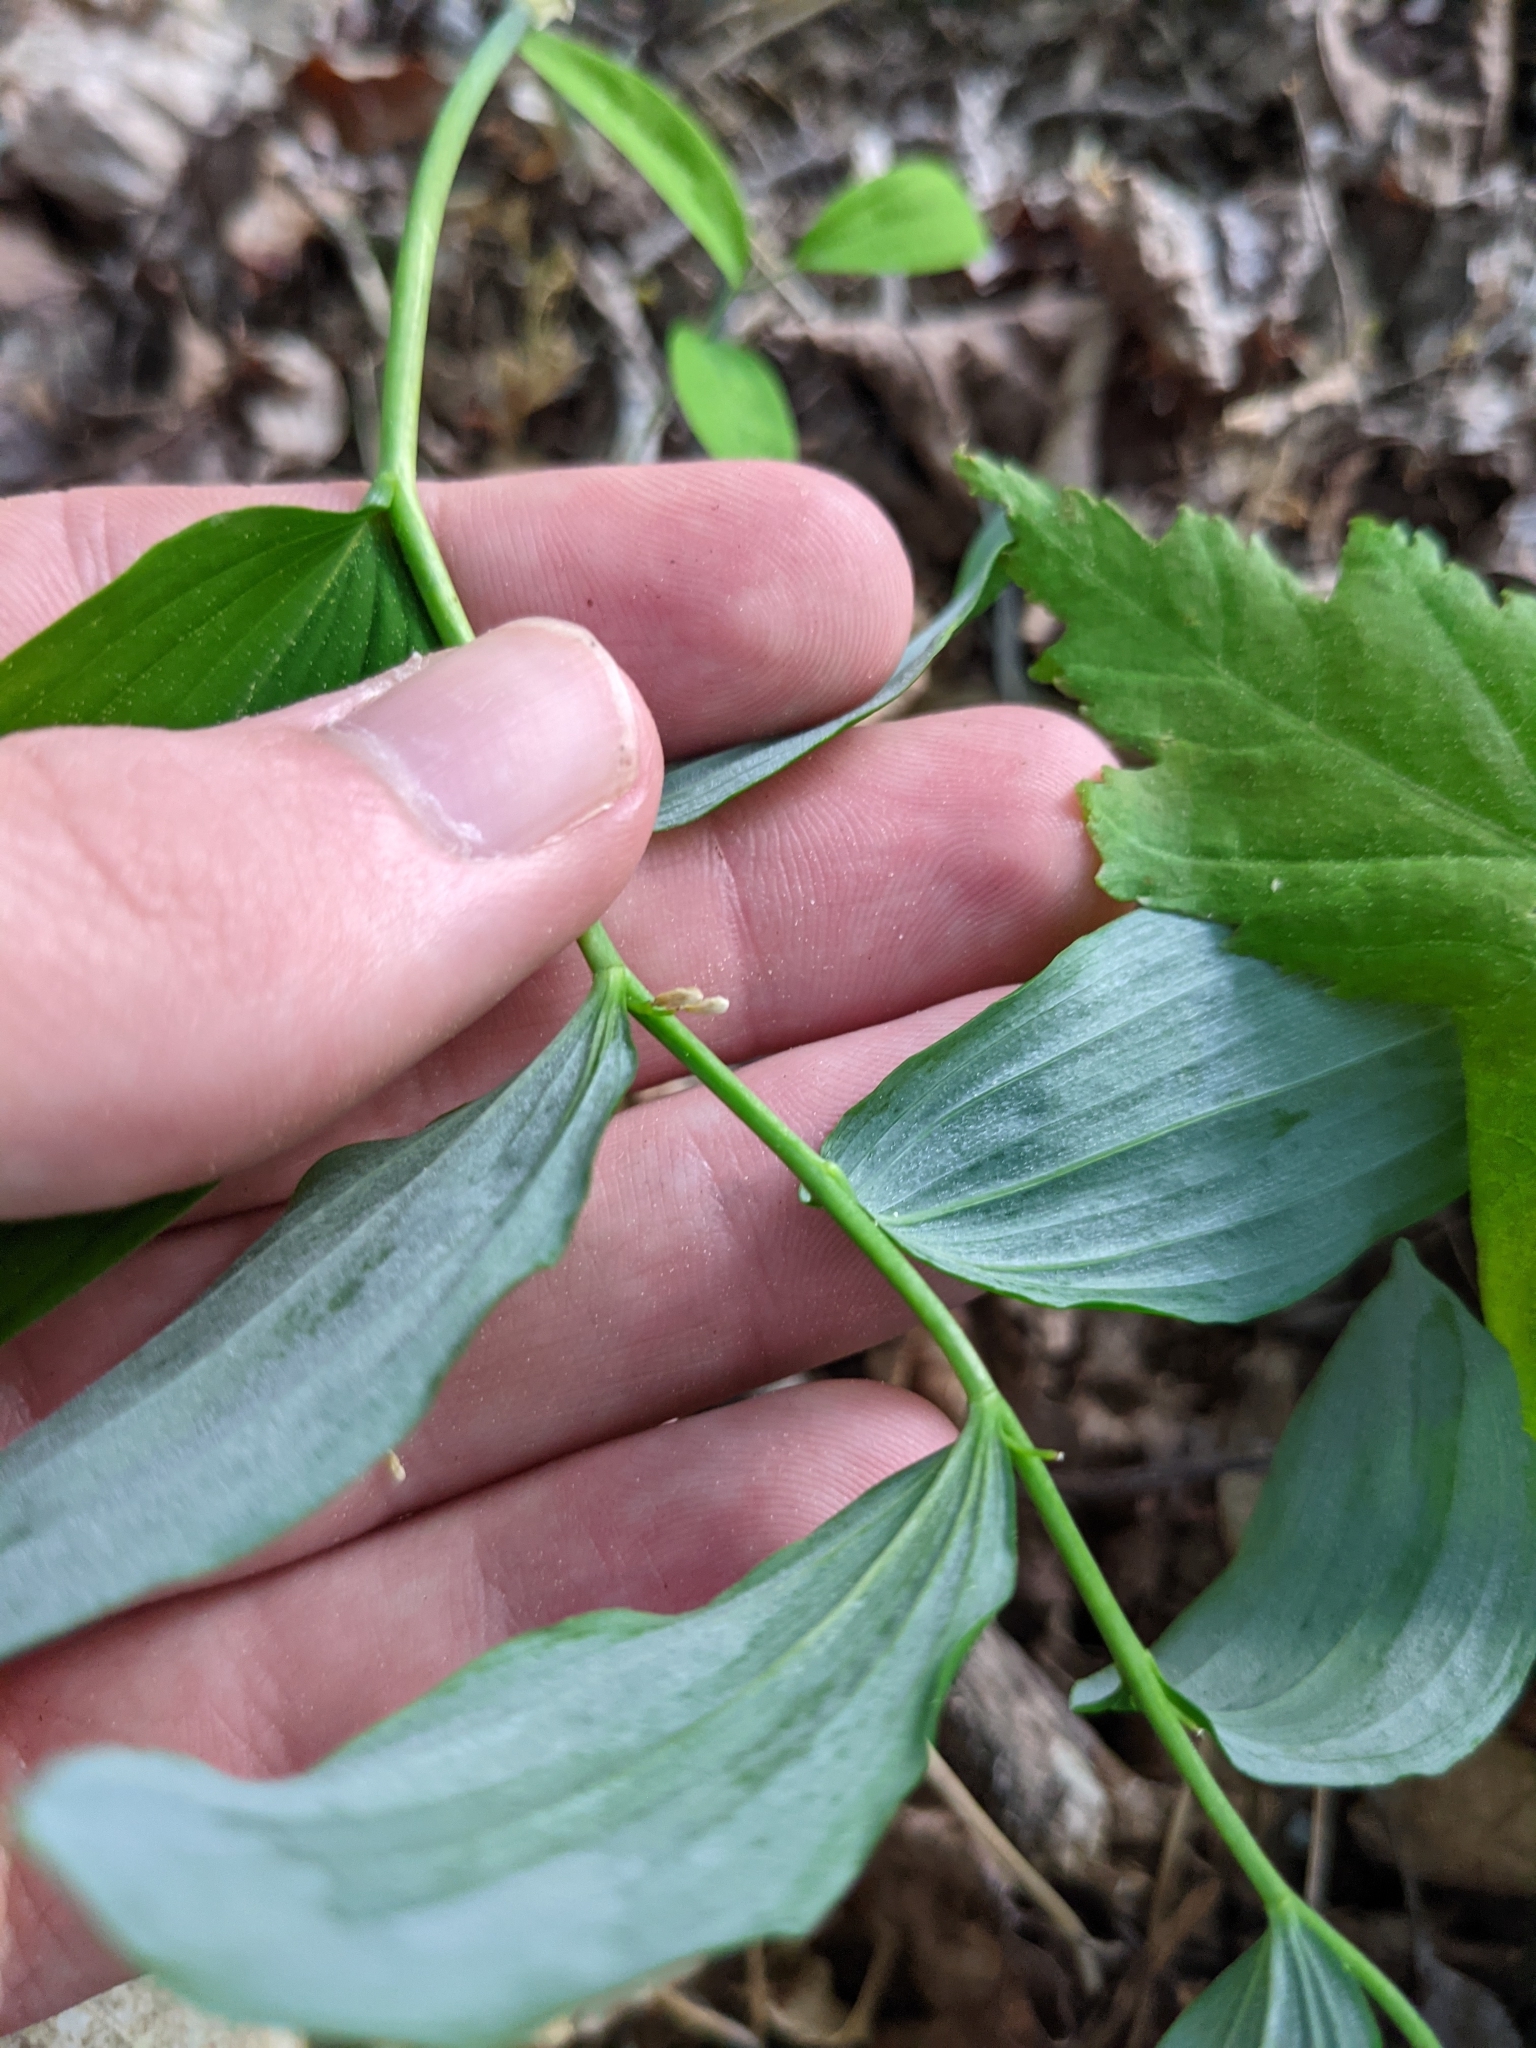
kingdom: Plantae
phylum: Tracheophyta
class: Liliopsida
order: Asparagales
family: Asparagaceae
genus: Polygonatum
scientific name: Polygonatum pubescens
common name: Downy solomon's seal
